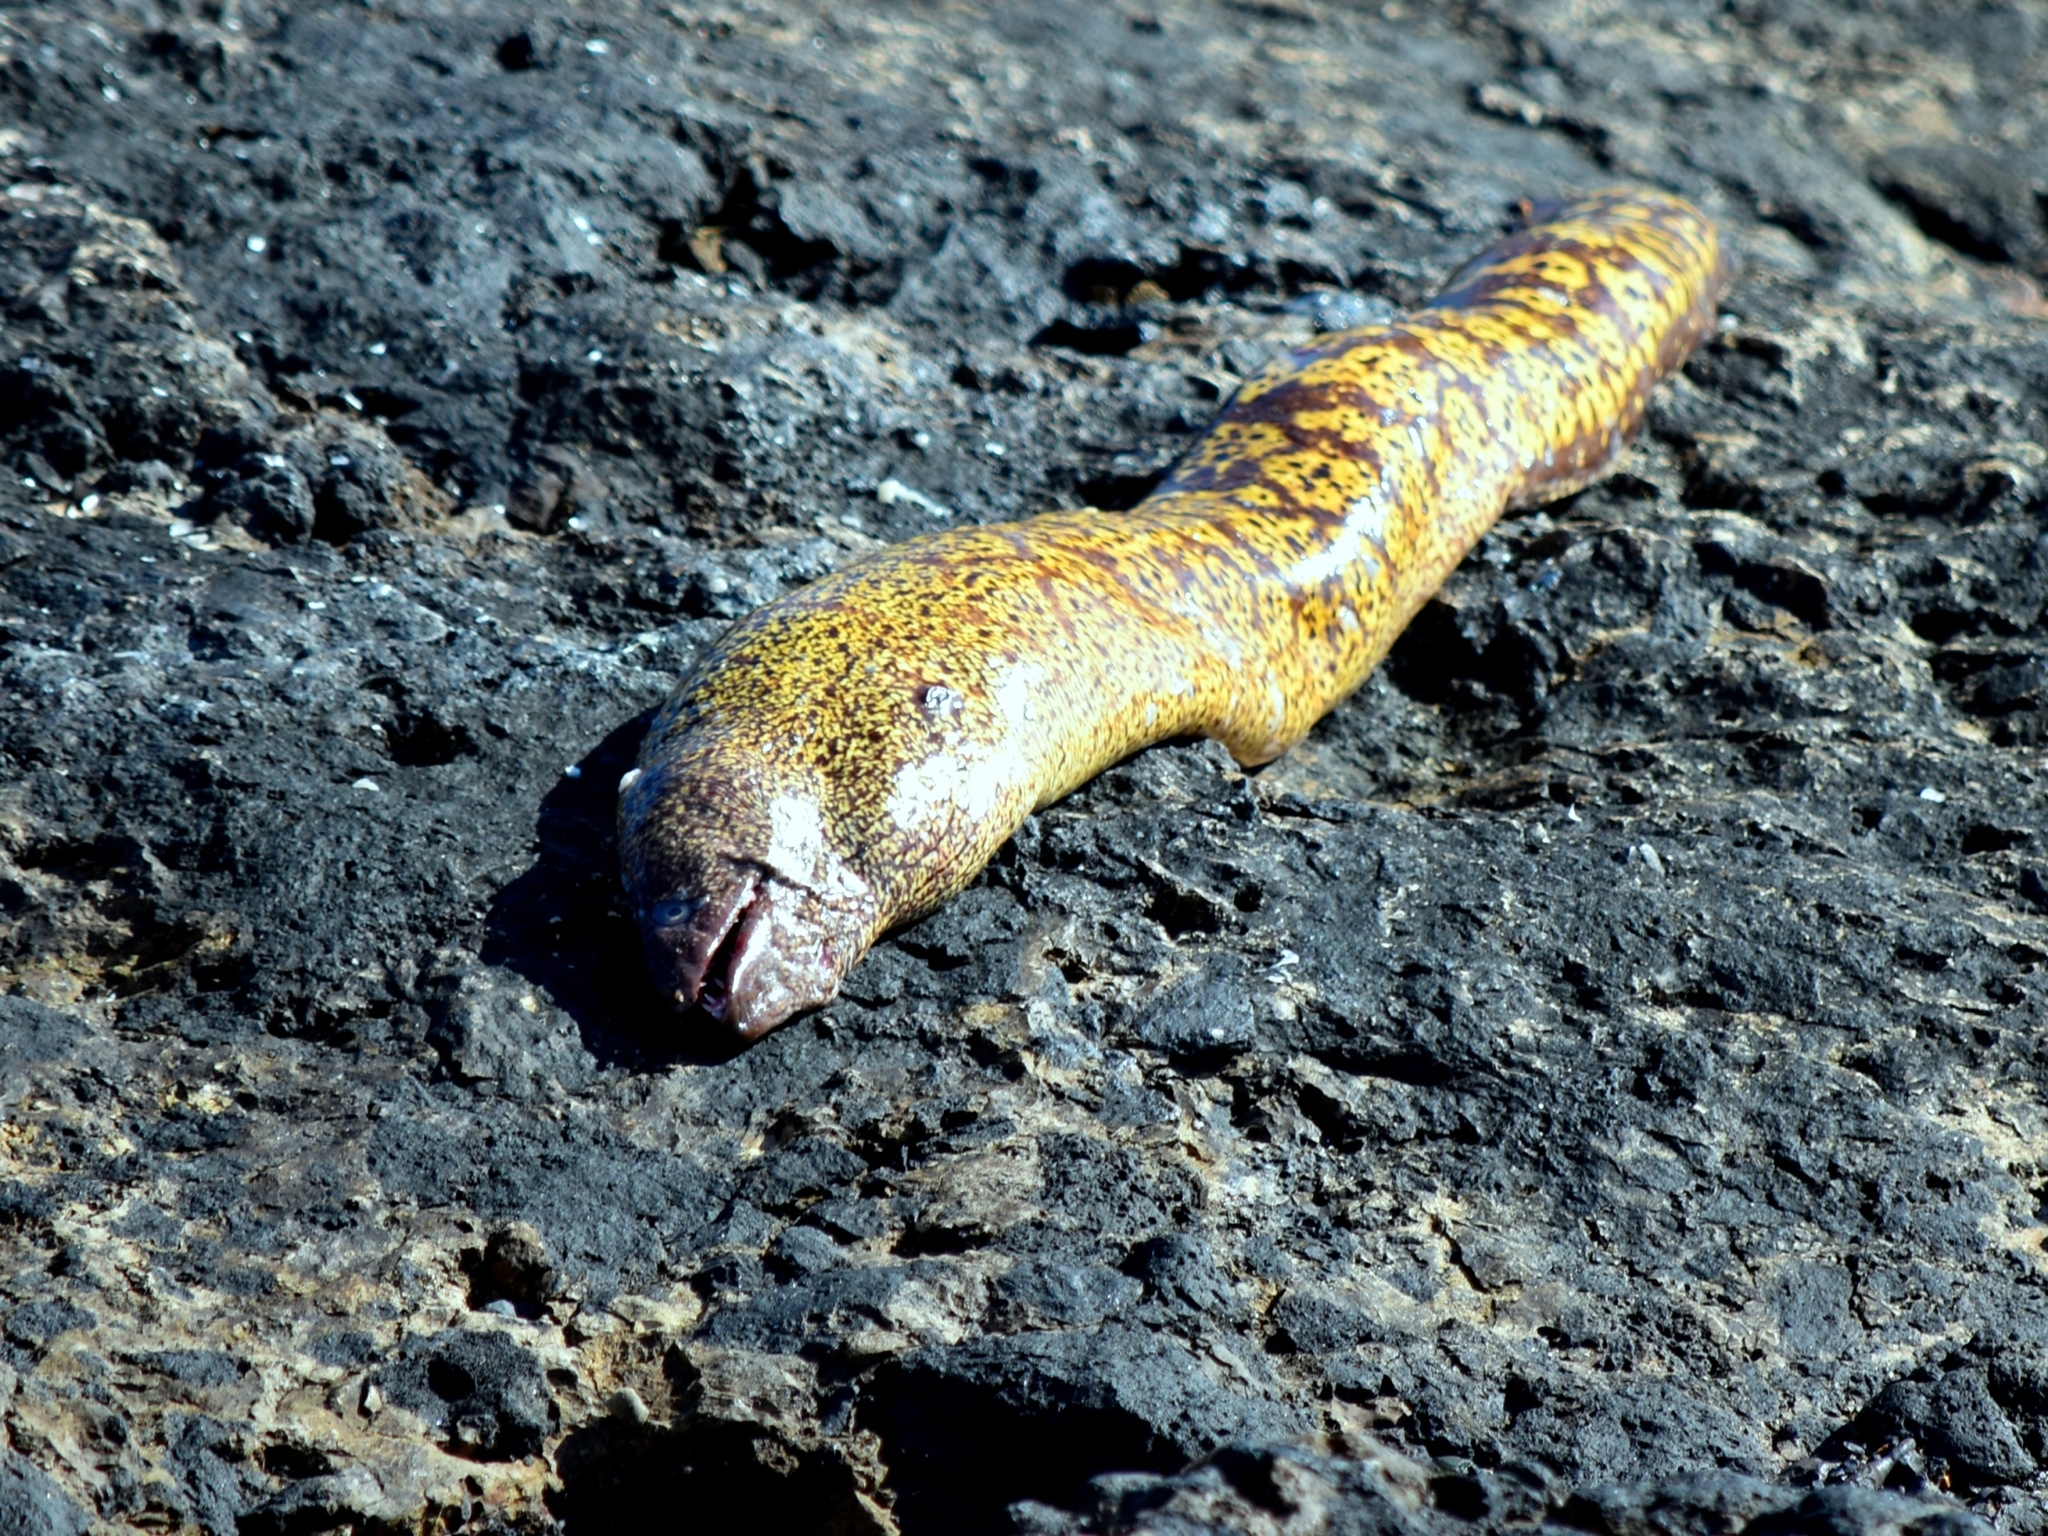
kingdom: Animalia
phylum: Chordata
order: Anguilliformes
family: Muraenidae
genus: Muraena
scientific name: Muraena helena
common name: Mediterranean moray
